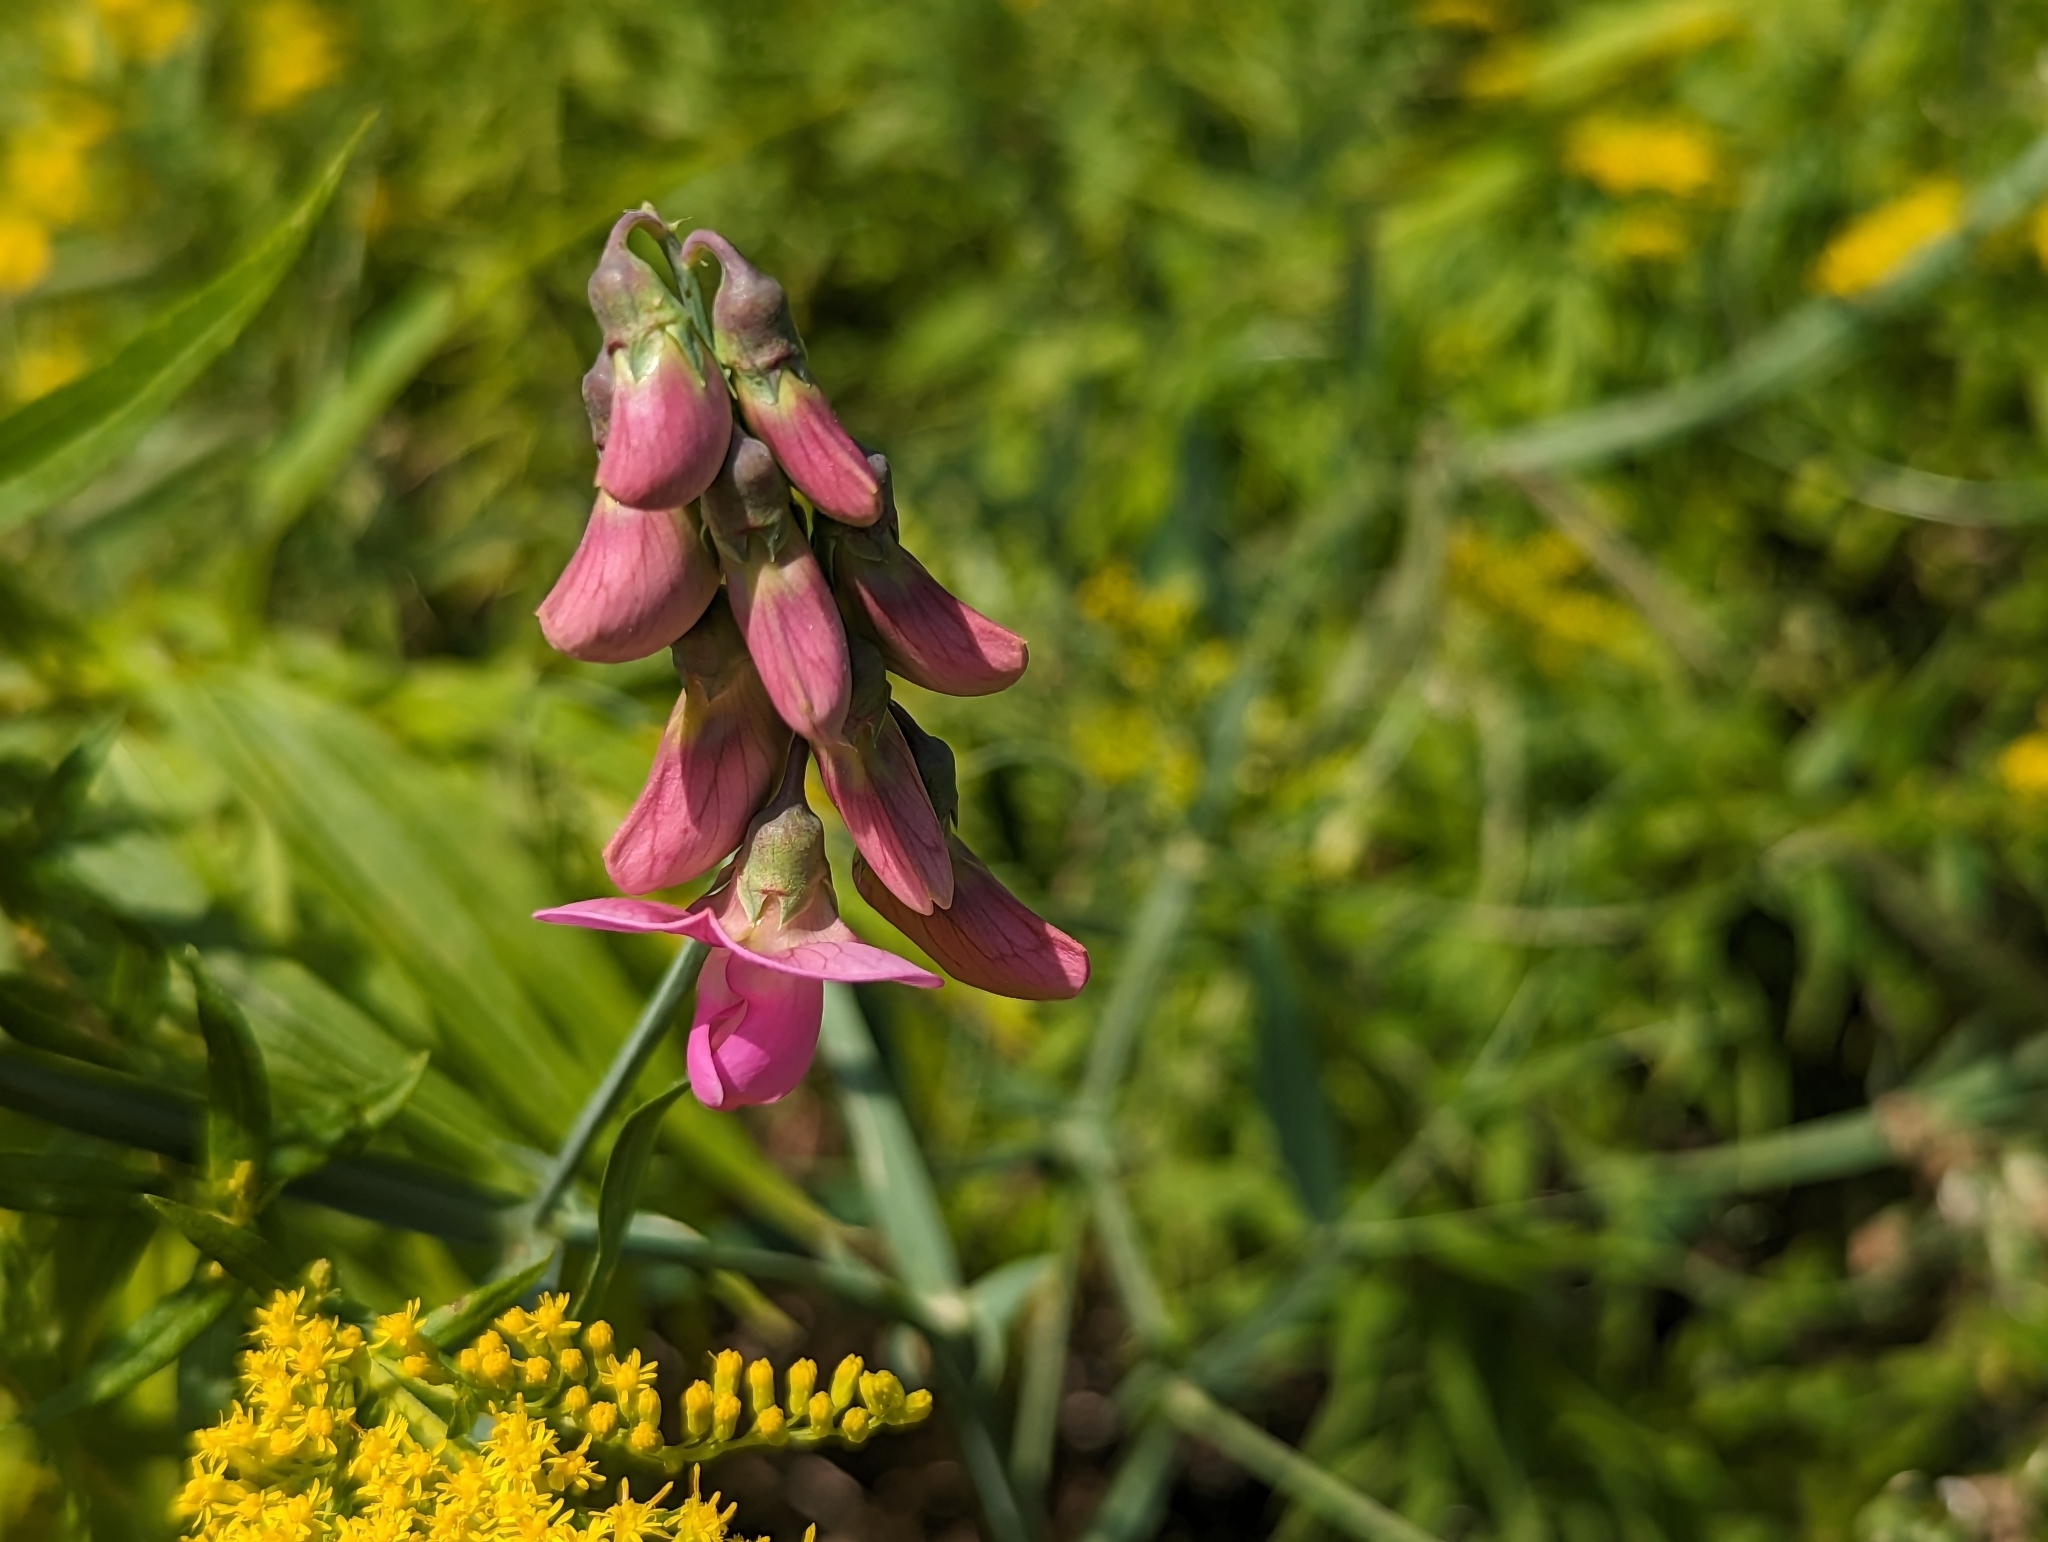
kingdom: Plantae
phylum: Tracheophyta
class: Magnoliopsida
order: Fabales
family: Fabaceae
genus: Lathyrus
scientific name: Lathyrus latifolius
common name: Perennial pea
